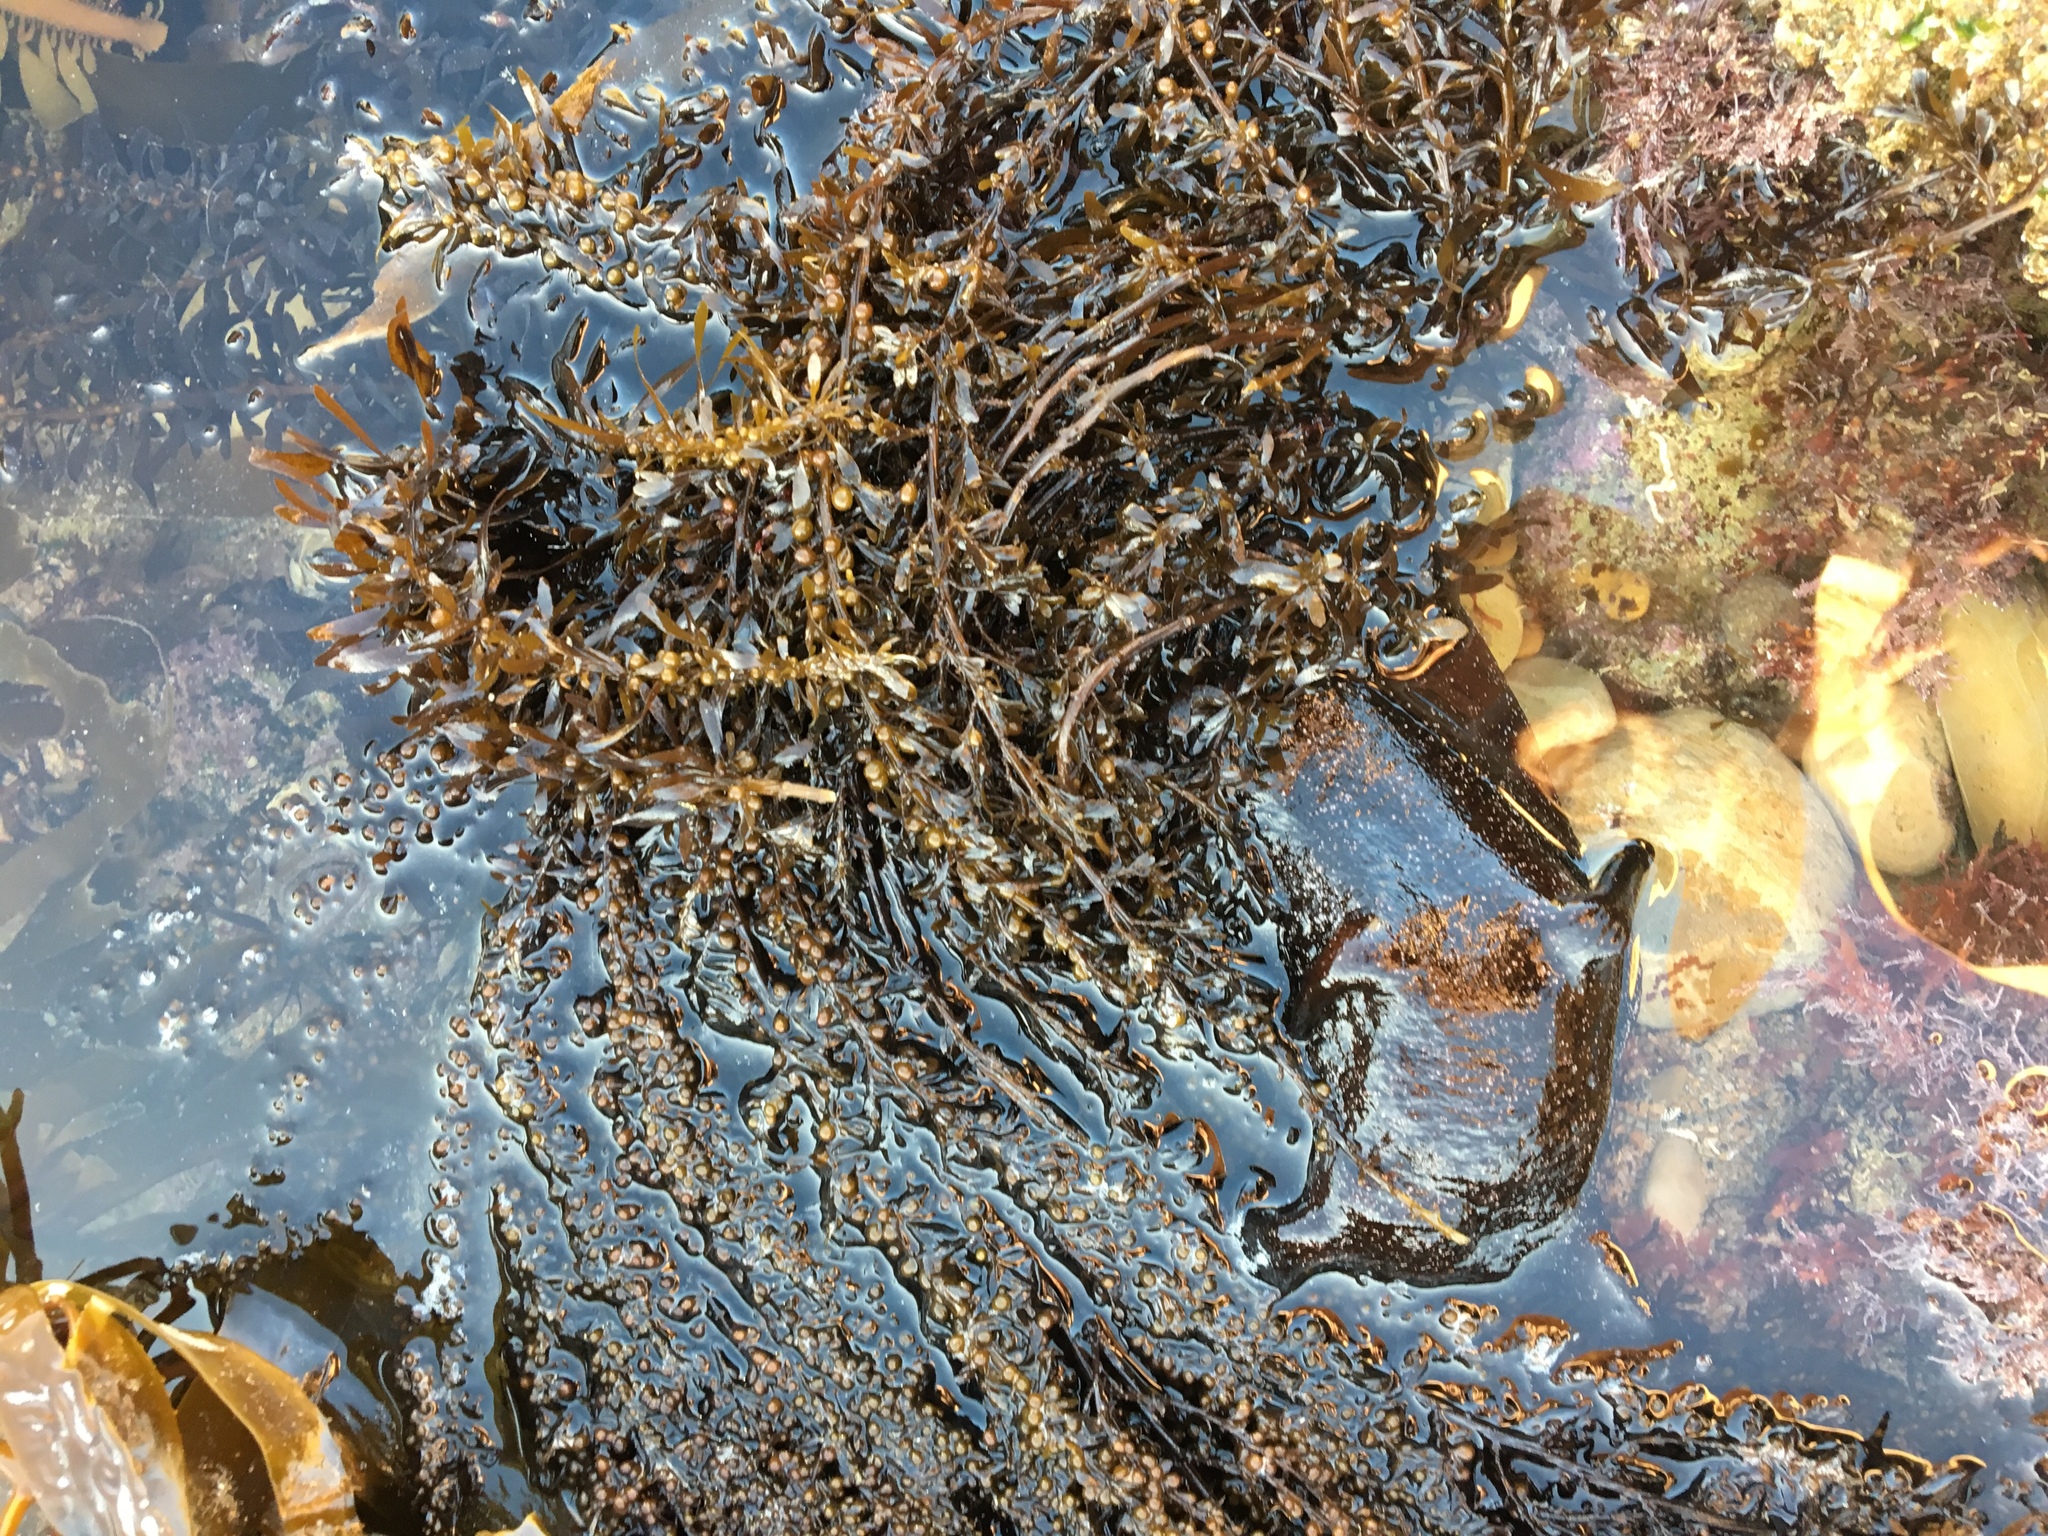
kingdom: Animalia
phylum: Mollusca
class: Gastropoda
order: Aplysiida
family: Aplysiidae
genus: Aplysia
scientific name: Aplysia vaccaria
